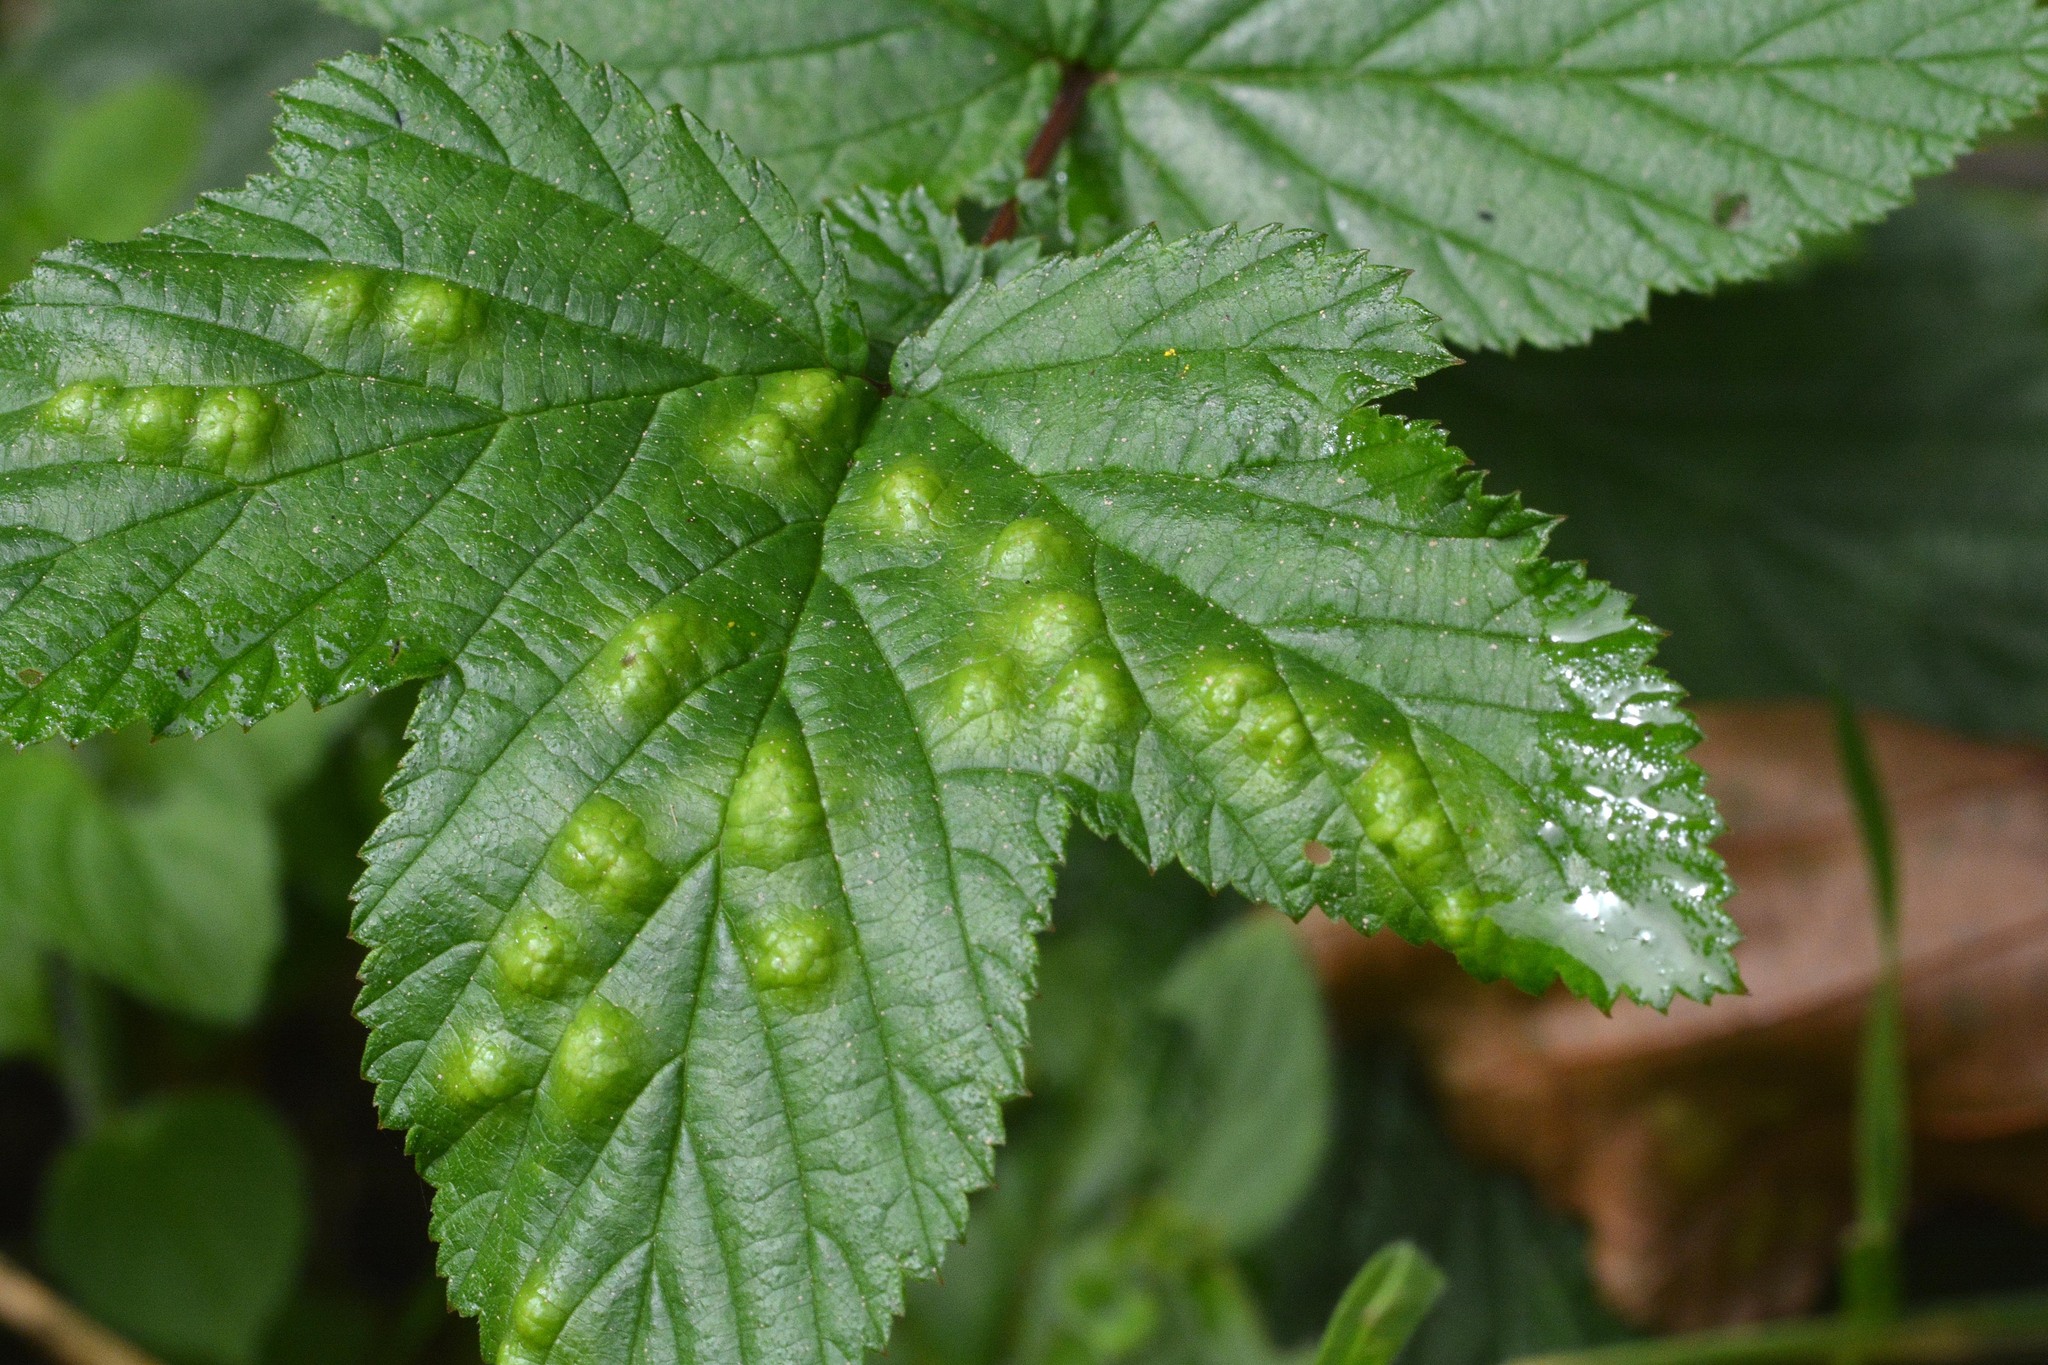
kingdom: Animalia
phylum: Arthropoda
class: Insecta
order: Diptera
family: Cecidomyiidae
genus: Dasineura
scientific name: Dasineura pustulans
